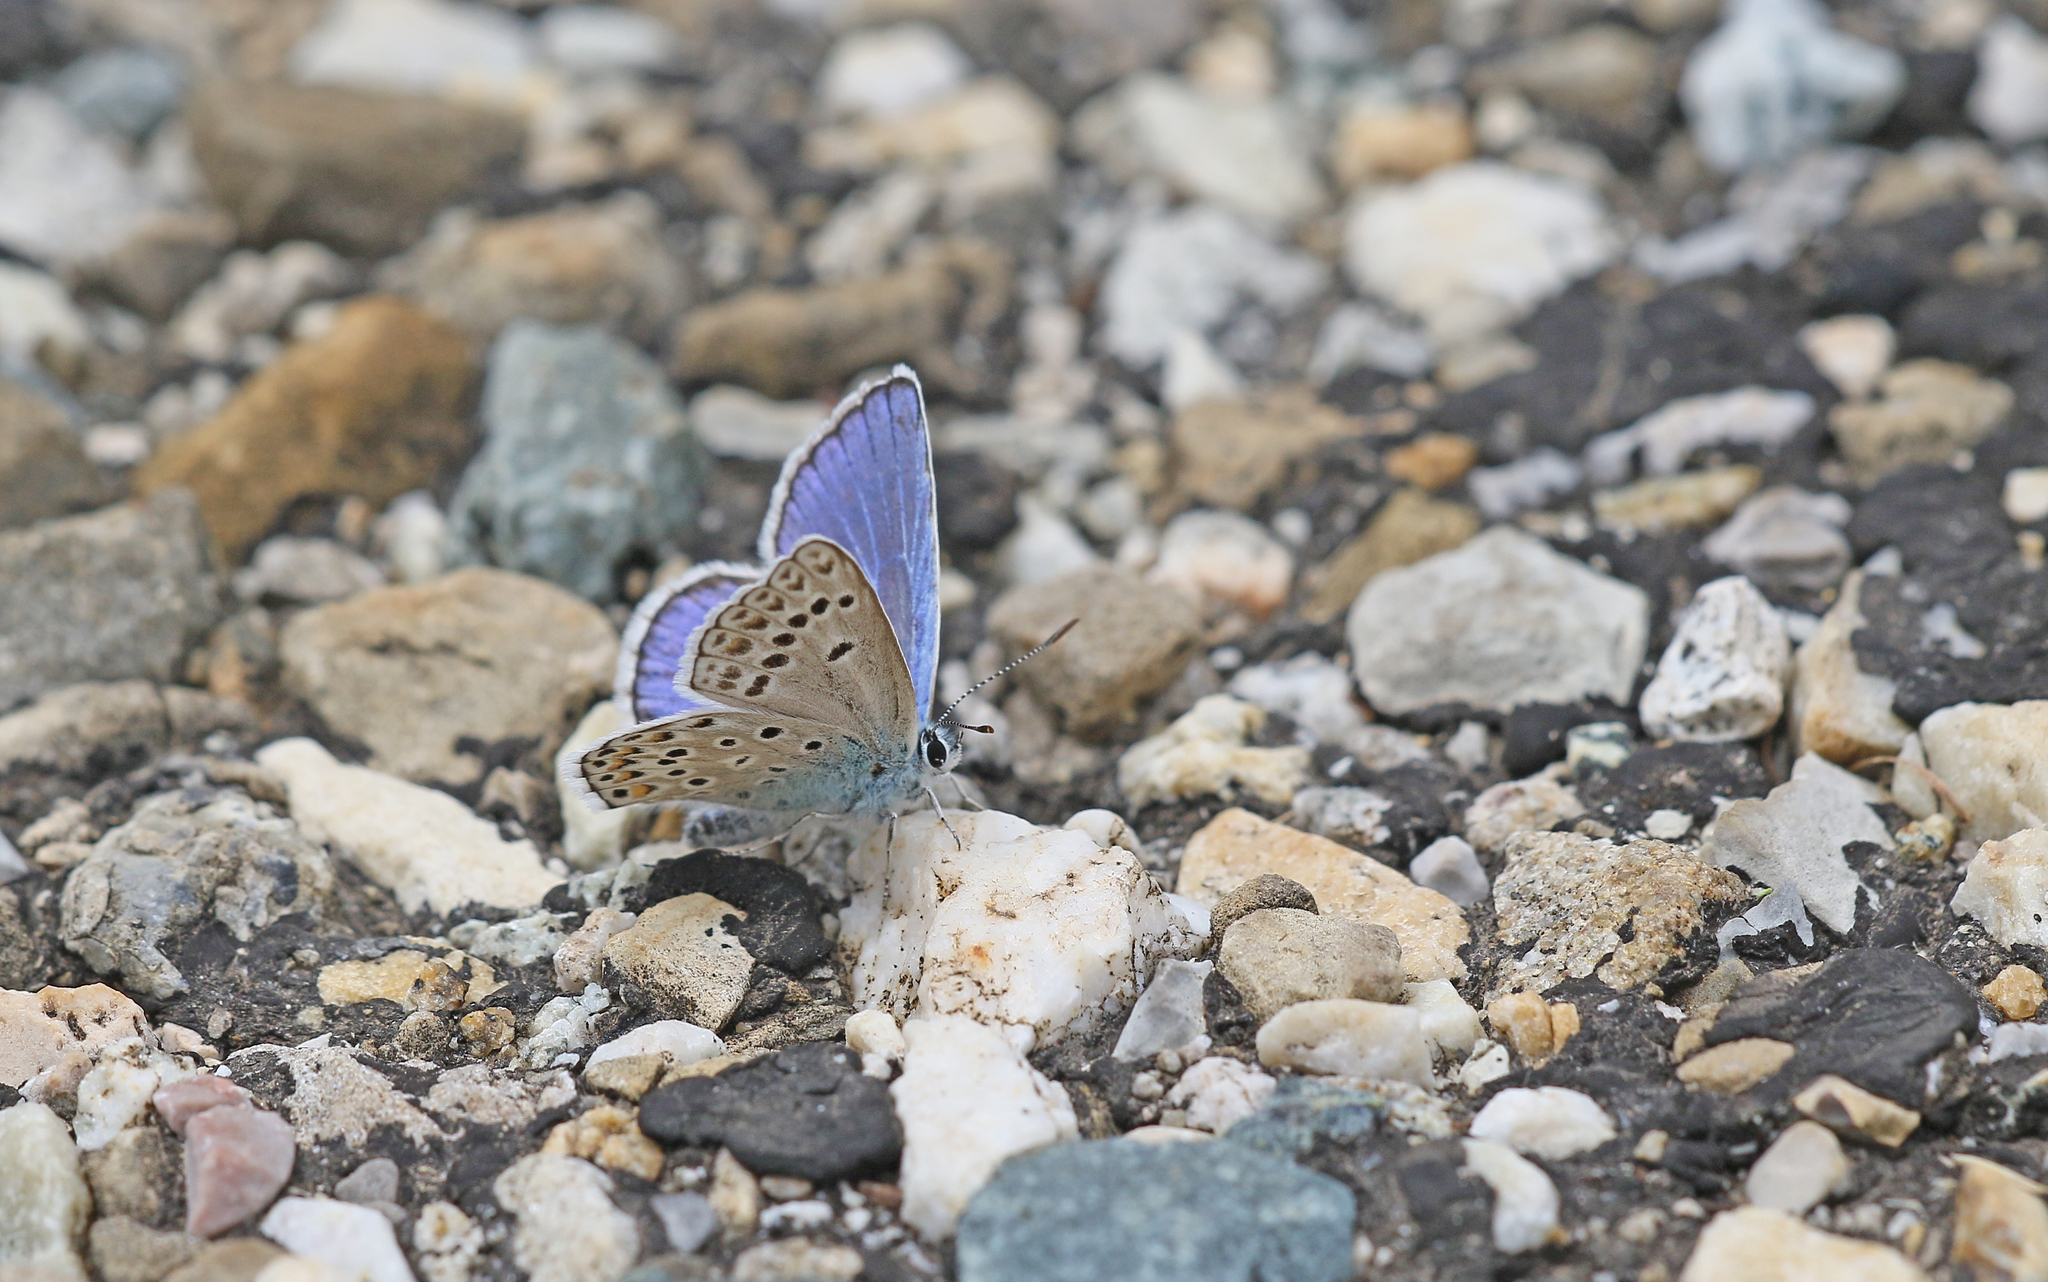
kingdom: Animalia
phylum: Arthropoda
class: Insecta
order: Lepidoptera
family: Lycaenidae
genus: Plebicula
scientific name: Plebicula escheri
